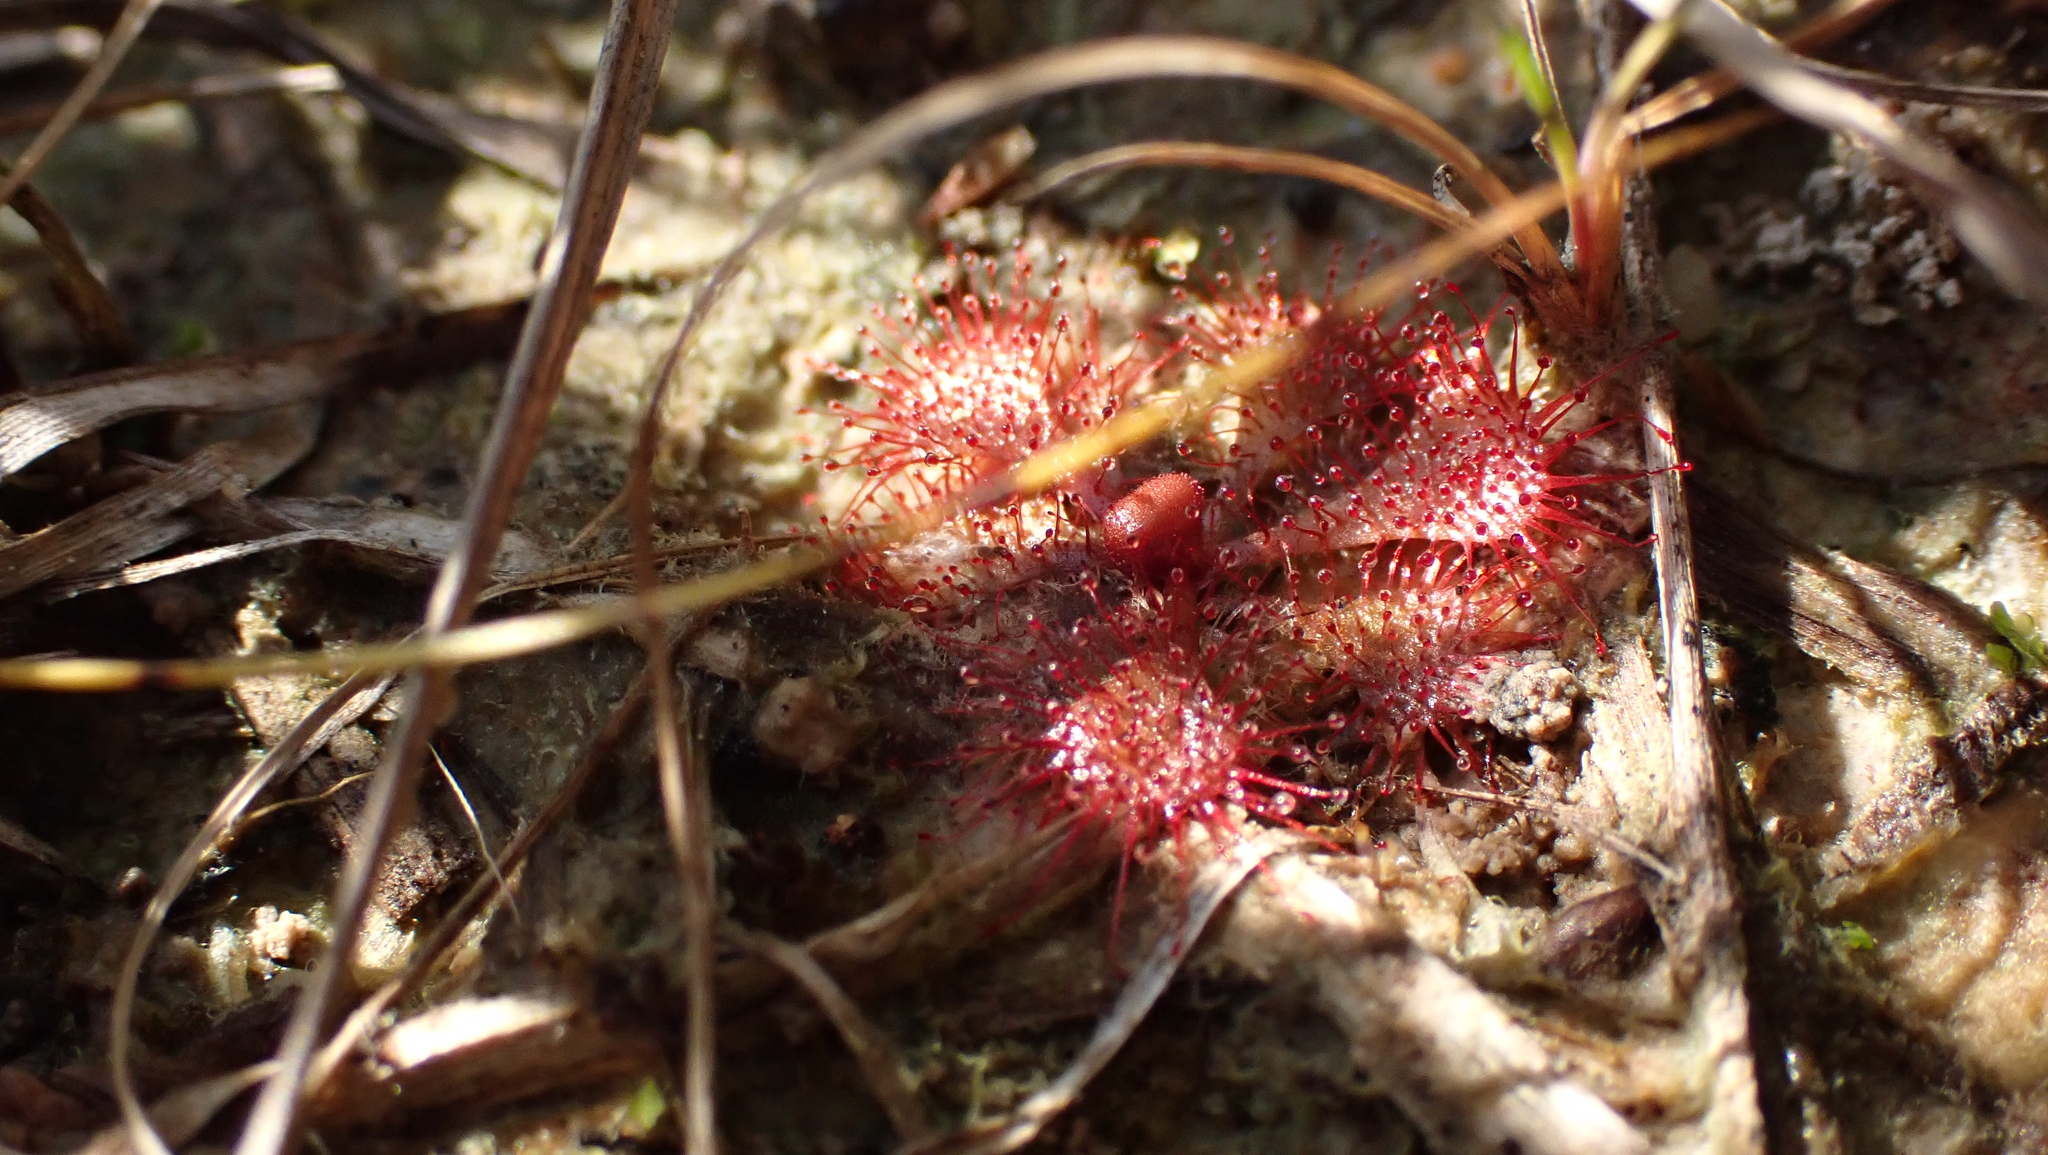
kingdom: Plantae
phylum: Tracheophyta
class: Magnoliopsida
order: Caryophyllales
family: Droseraceae
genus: Drosera
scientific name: Drosera brevifolia
